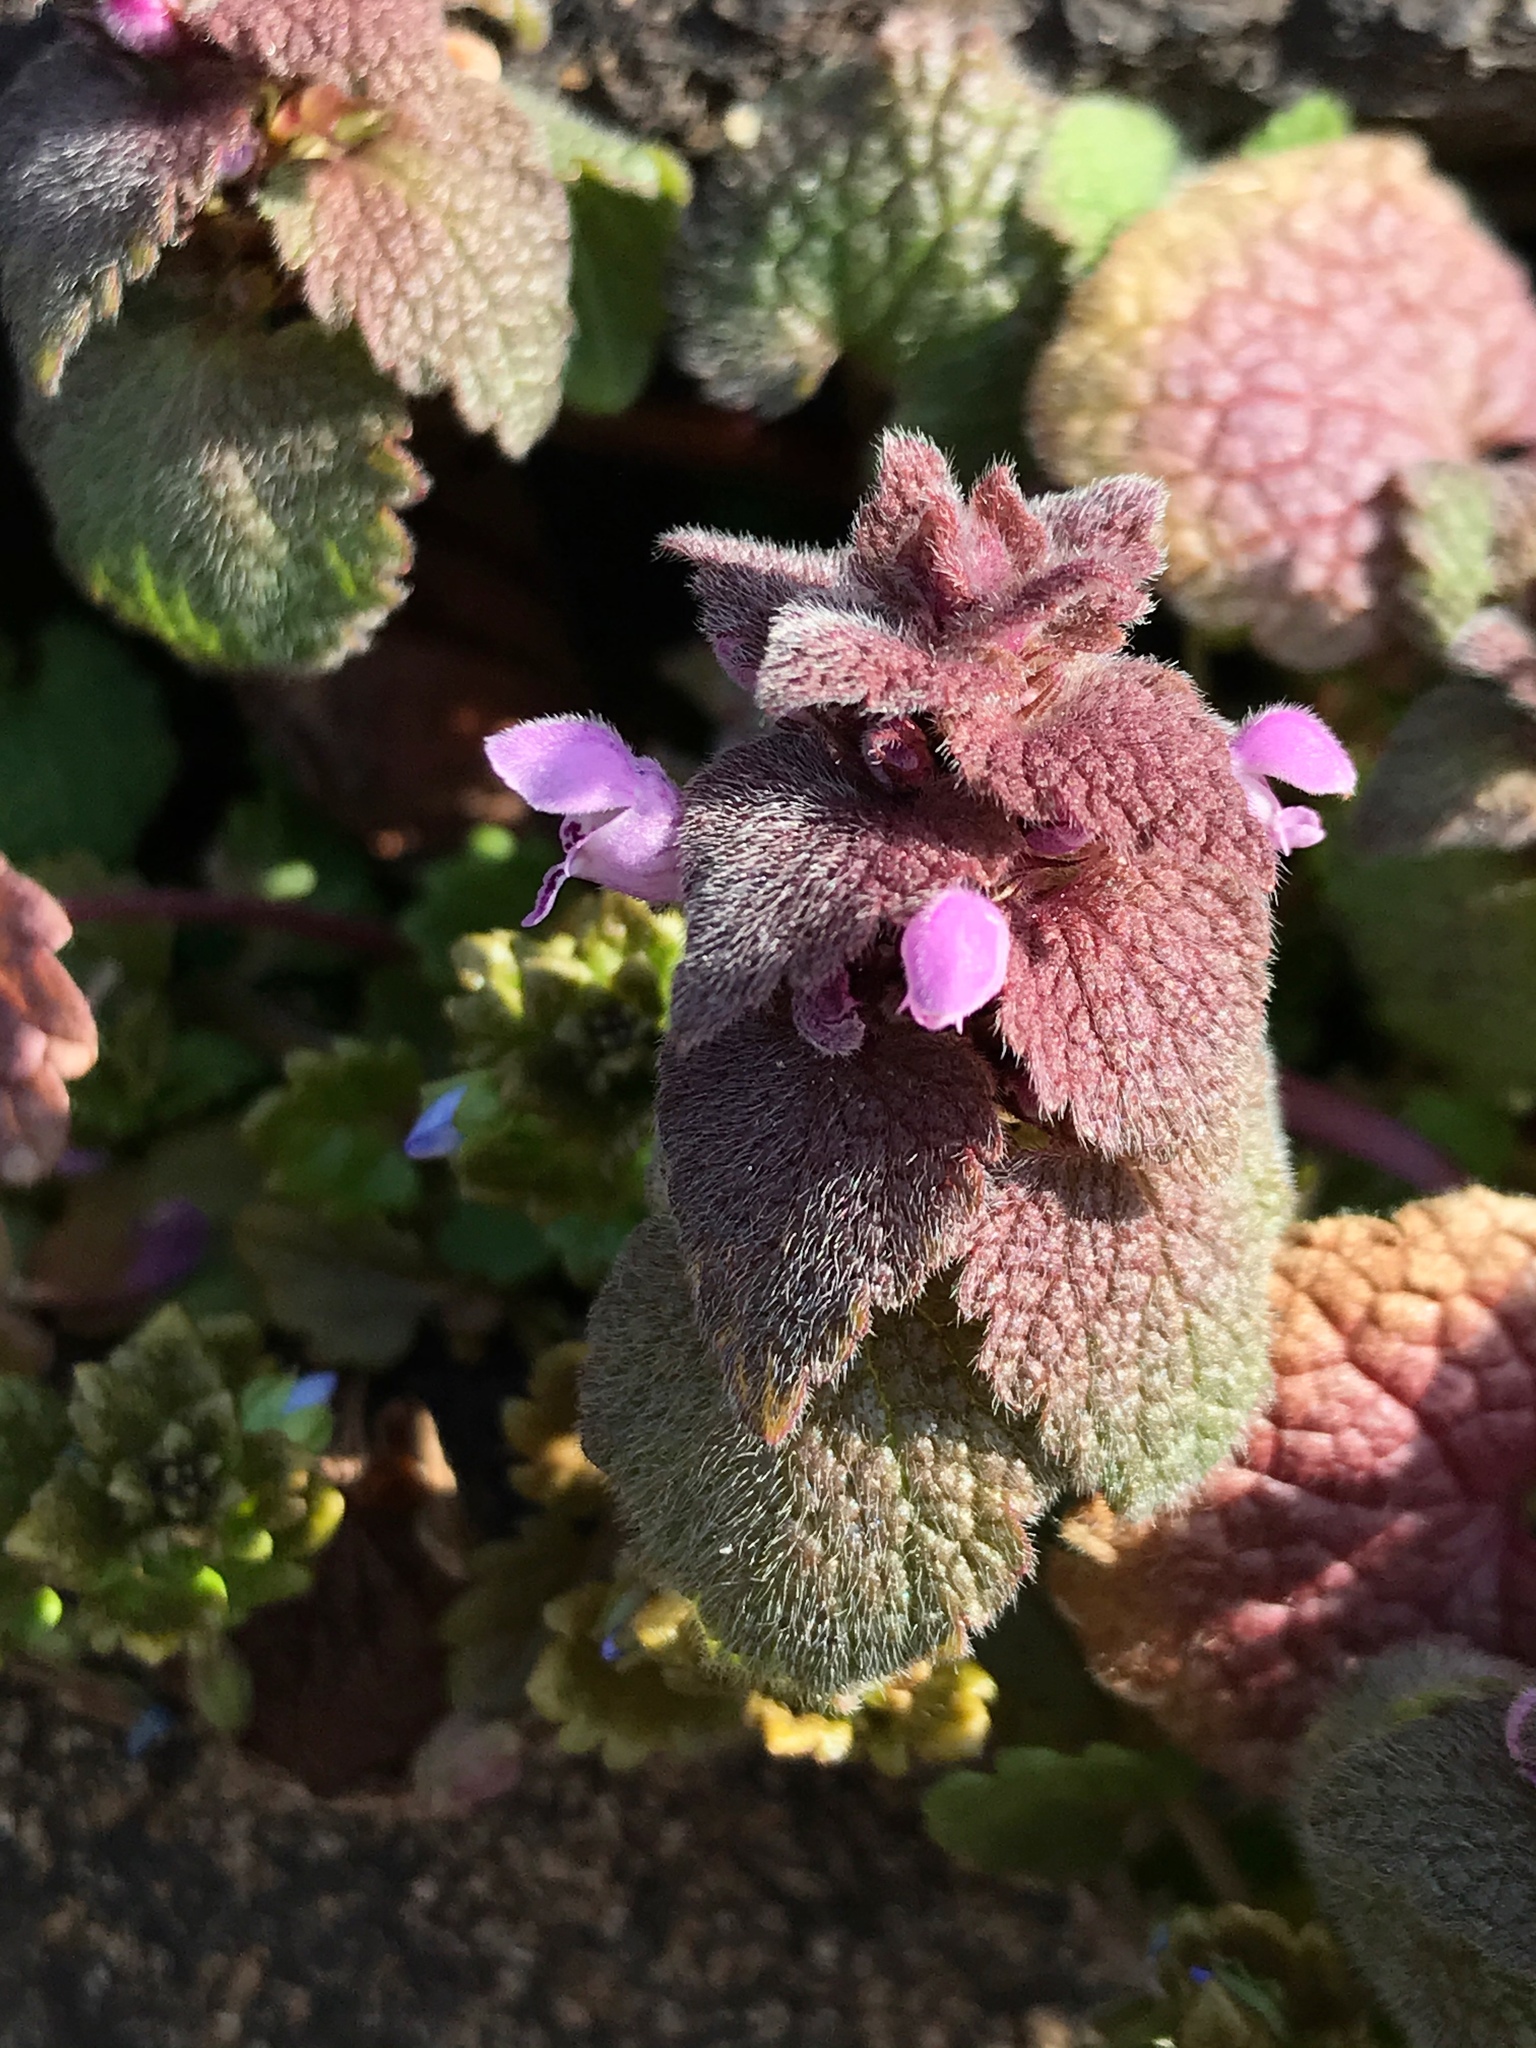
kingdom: Plantae
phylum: Tracheophyta
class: Magnoliopsida
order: Lamiales
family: Lamiaceae
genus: Lamium
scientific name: Lamium purpureum
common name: Red dead-nettle
